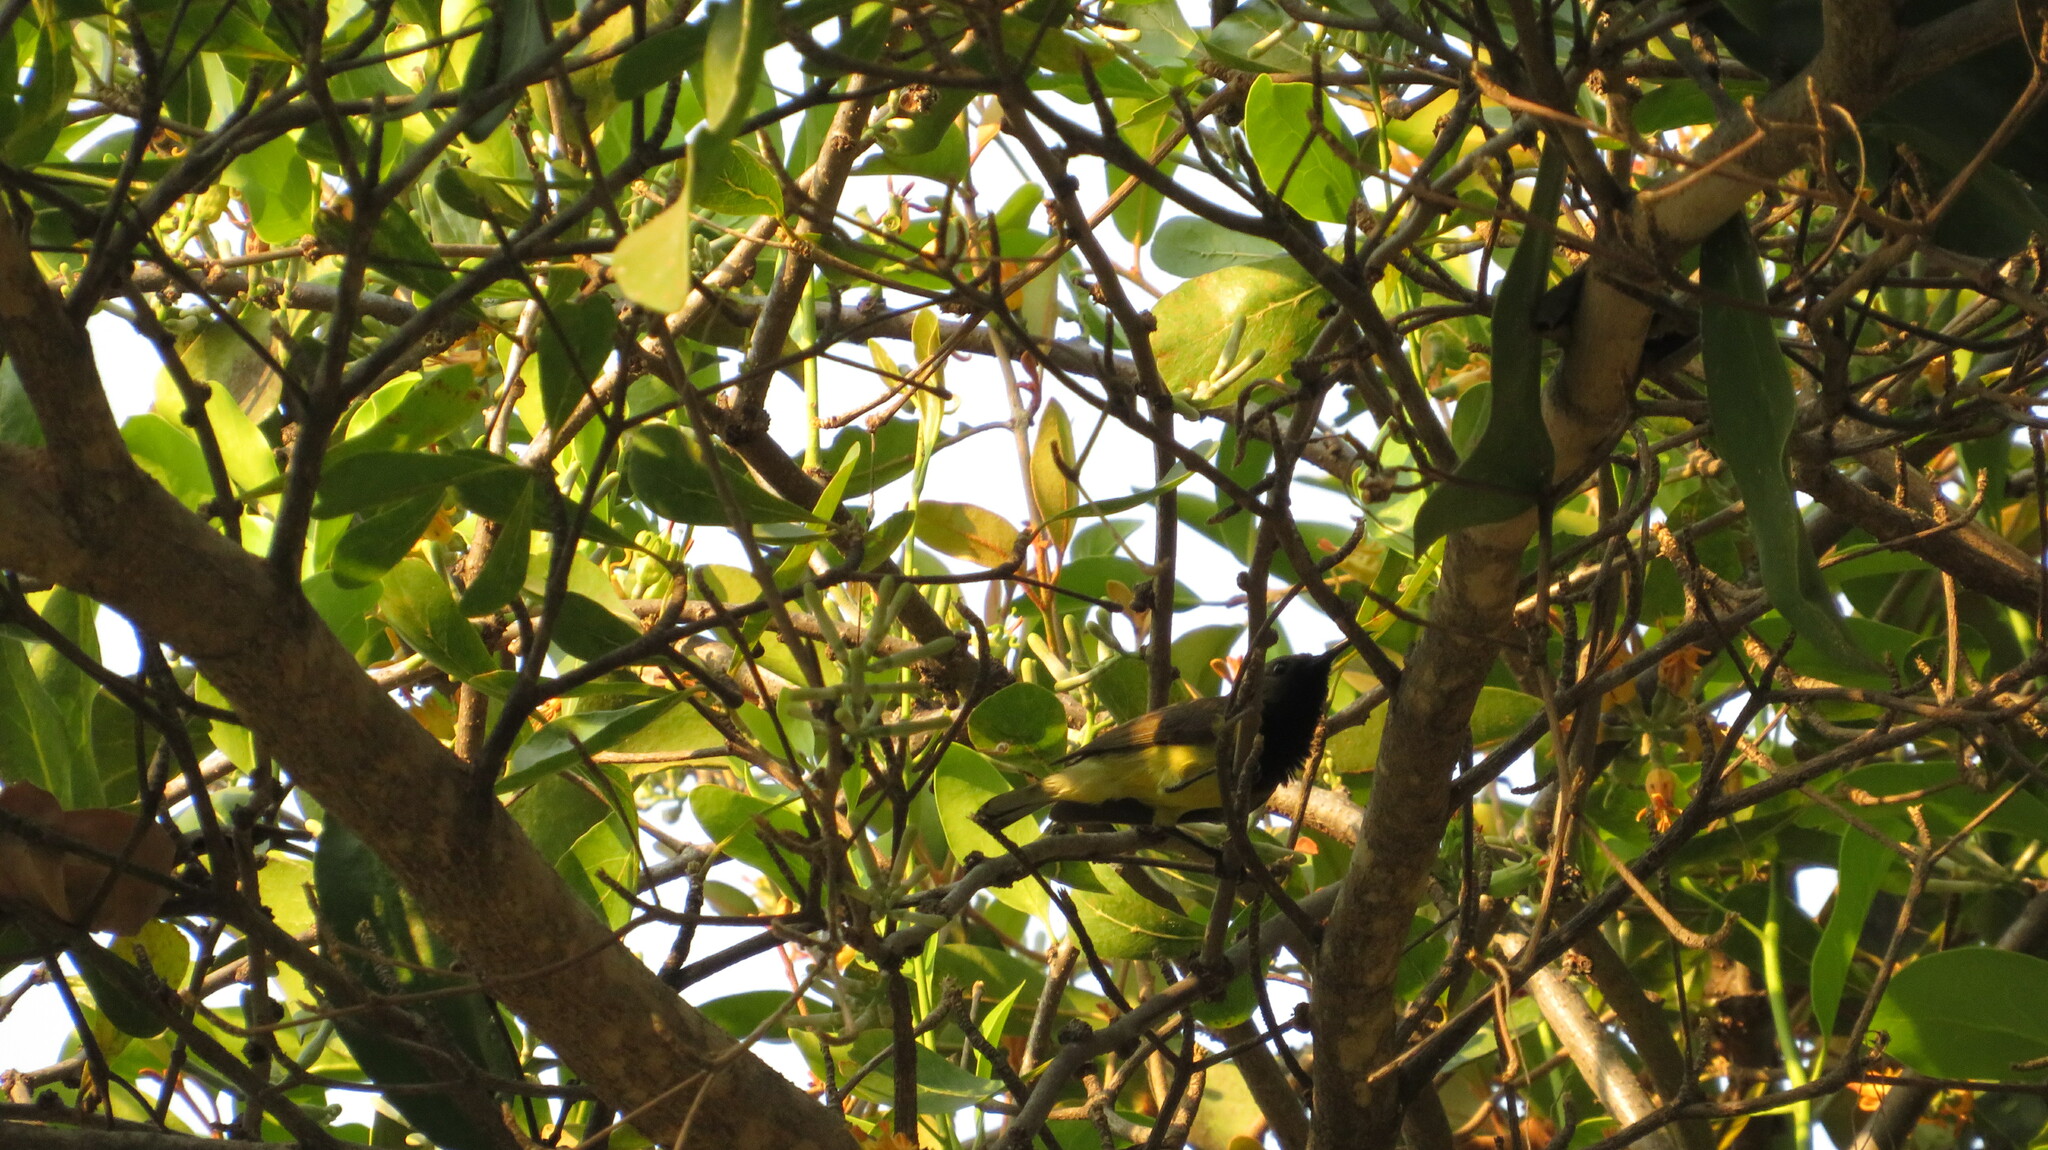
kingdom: Animalia
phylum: Chordata
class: Aves
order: Passeriformes
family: Nectariniidae
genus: Cinnyris
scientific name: Cinnyris
